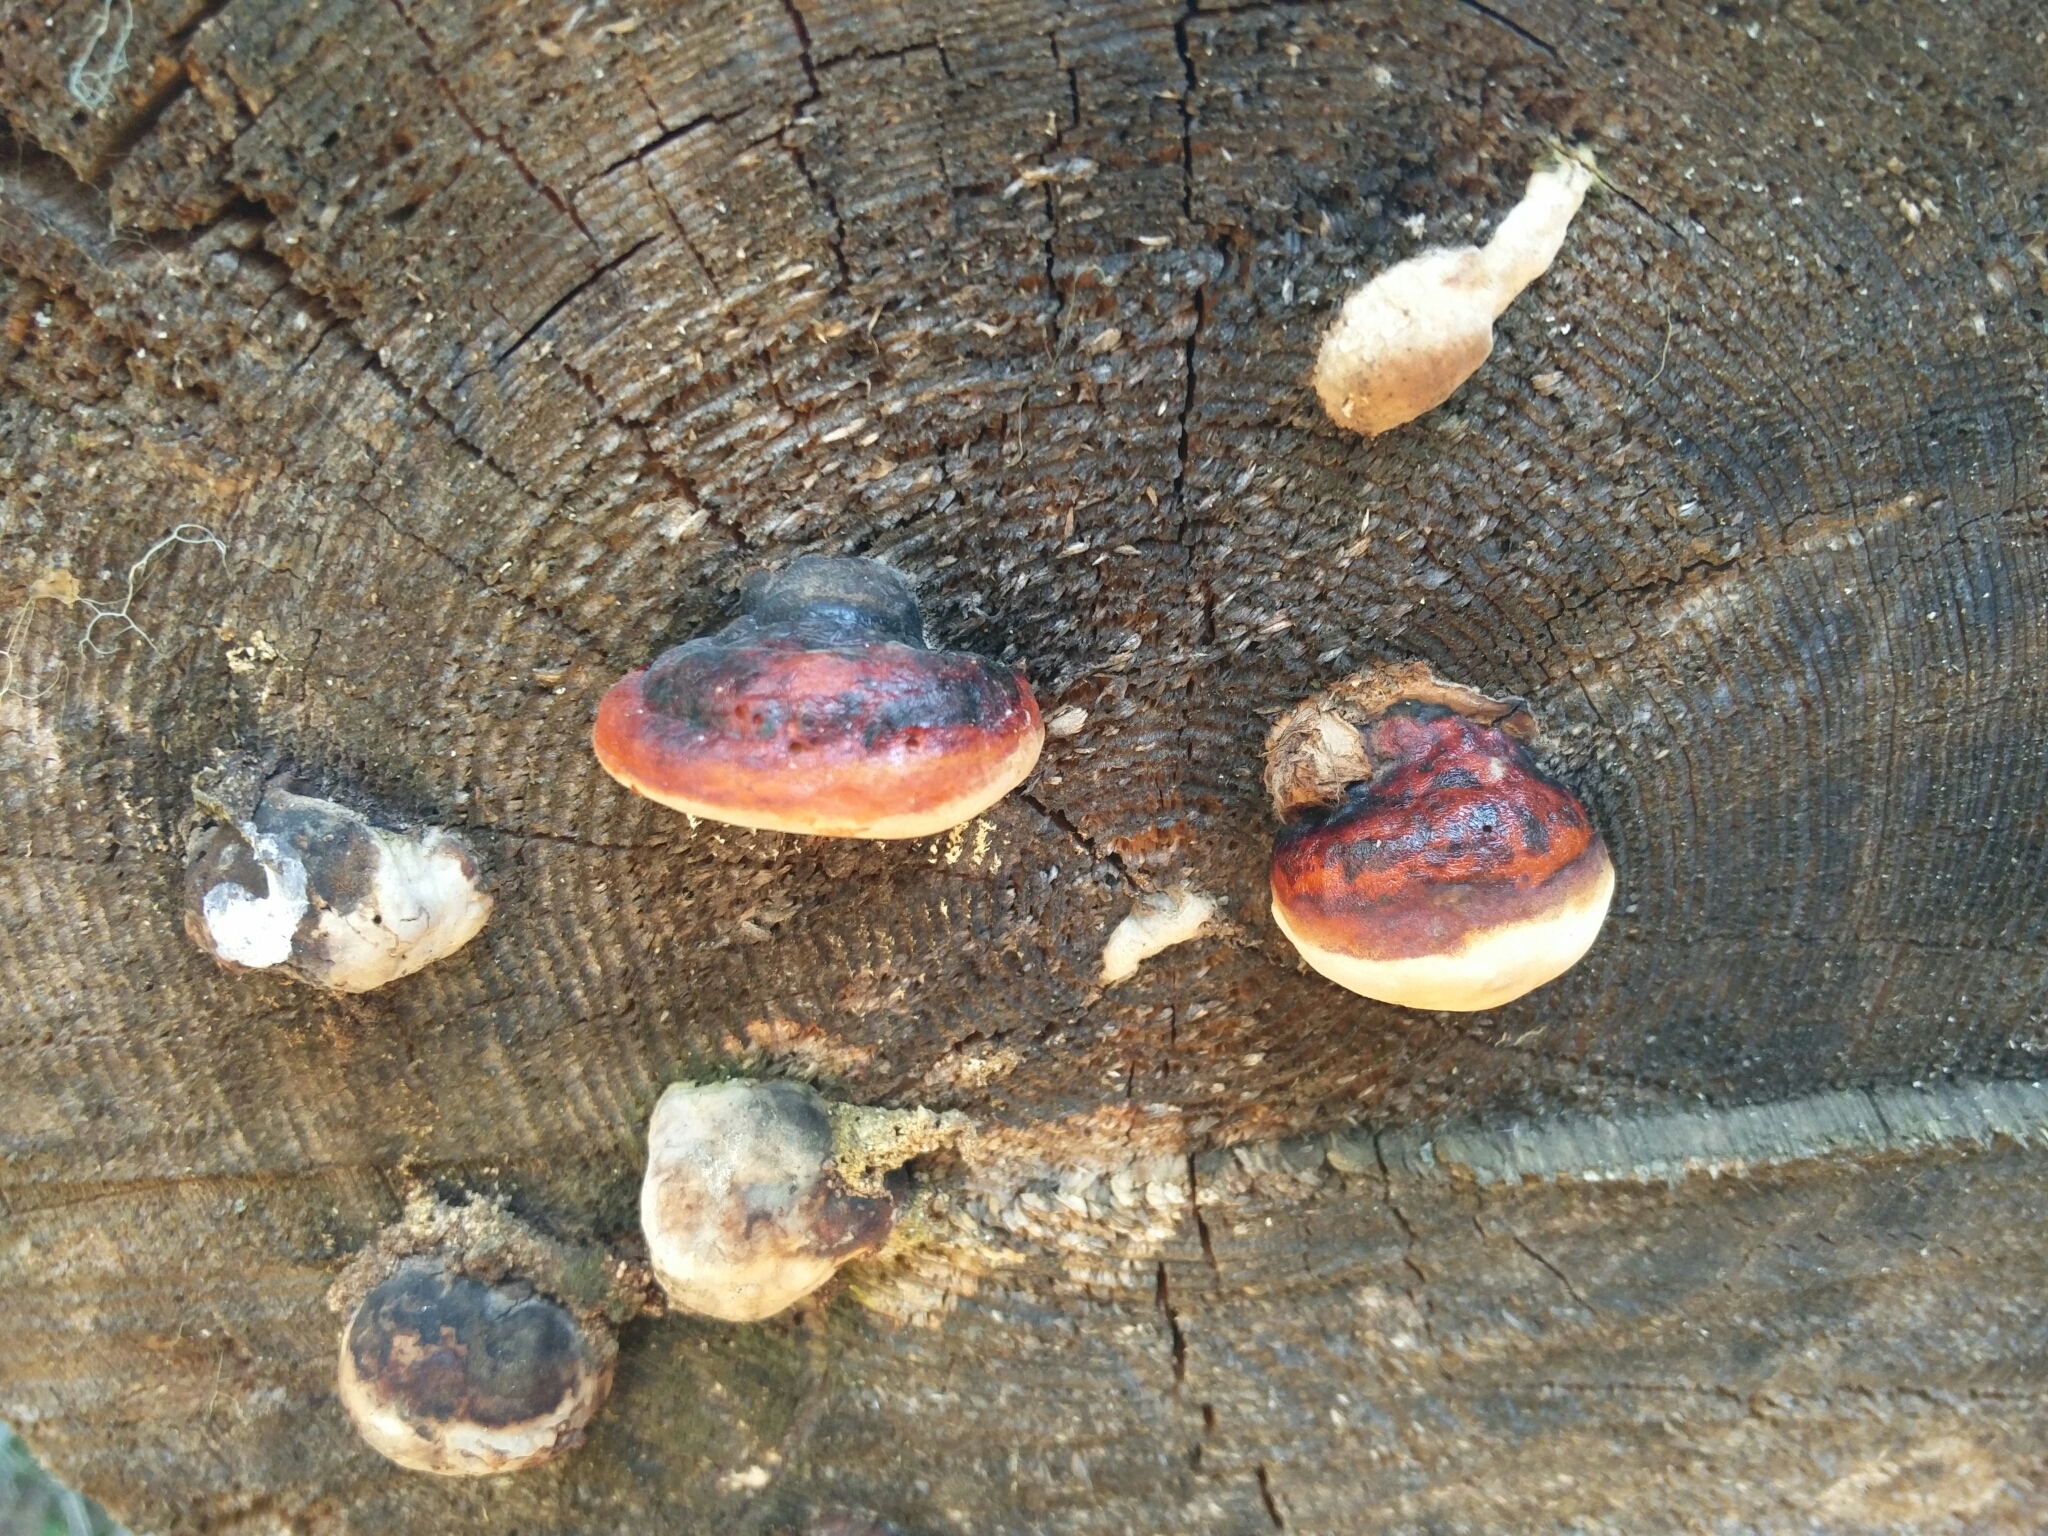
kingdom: Fungi
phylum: Basidiomycota
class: Agaricomycetes
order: Polyporales
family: Fomitopsidaceae
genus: Fomitopsis
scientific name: Fomitopsis pinicola
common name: Red-belted bracket
